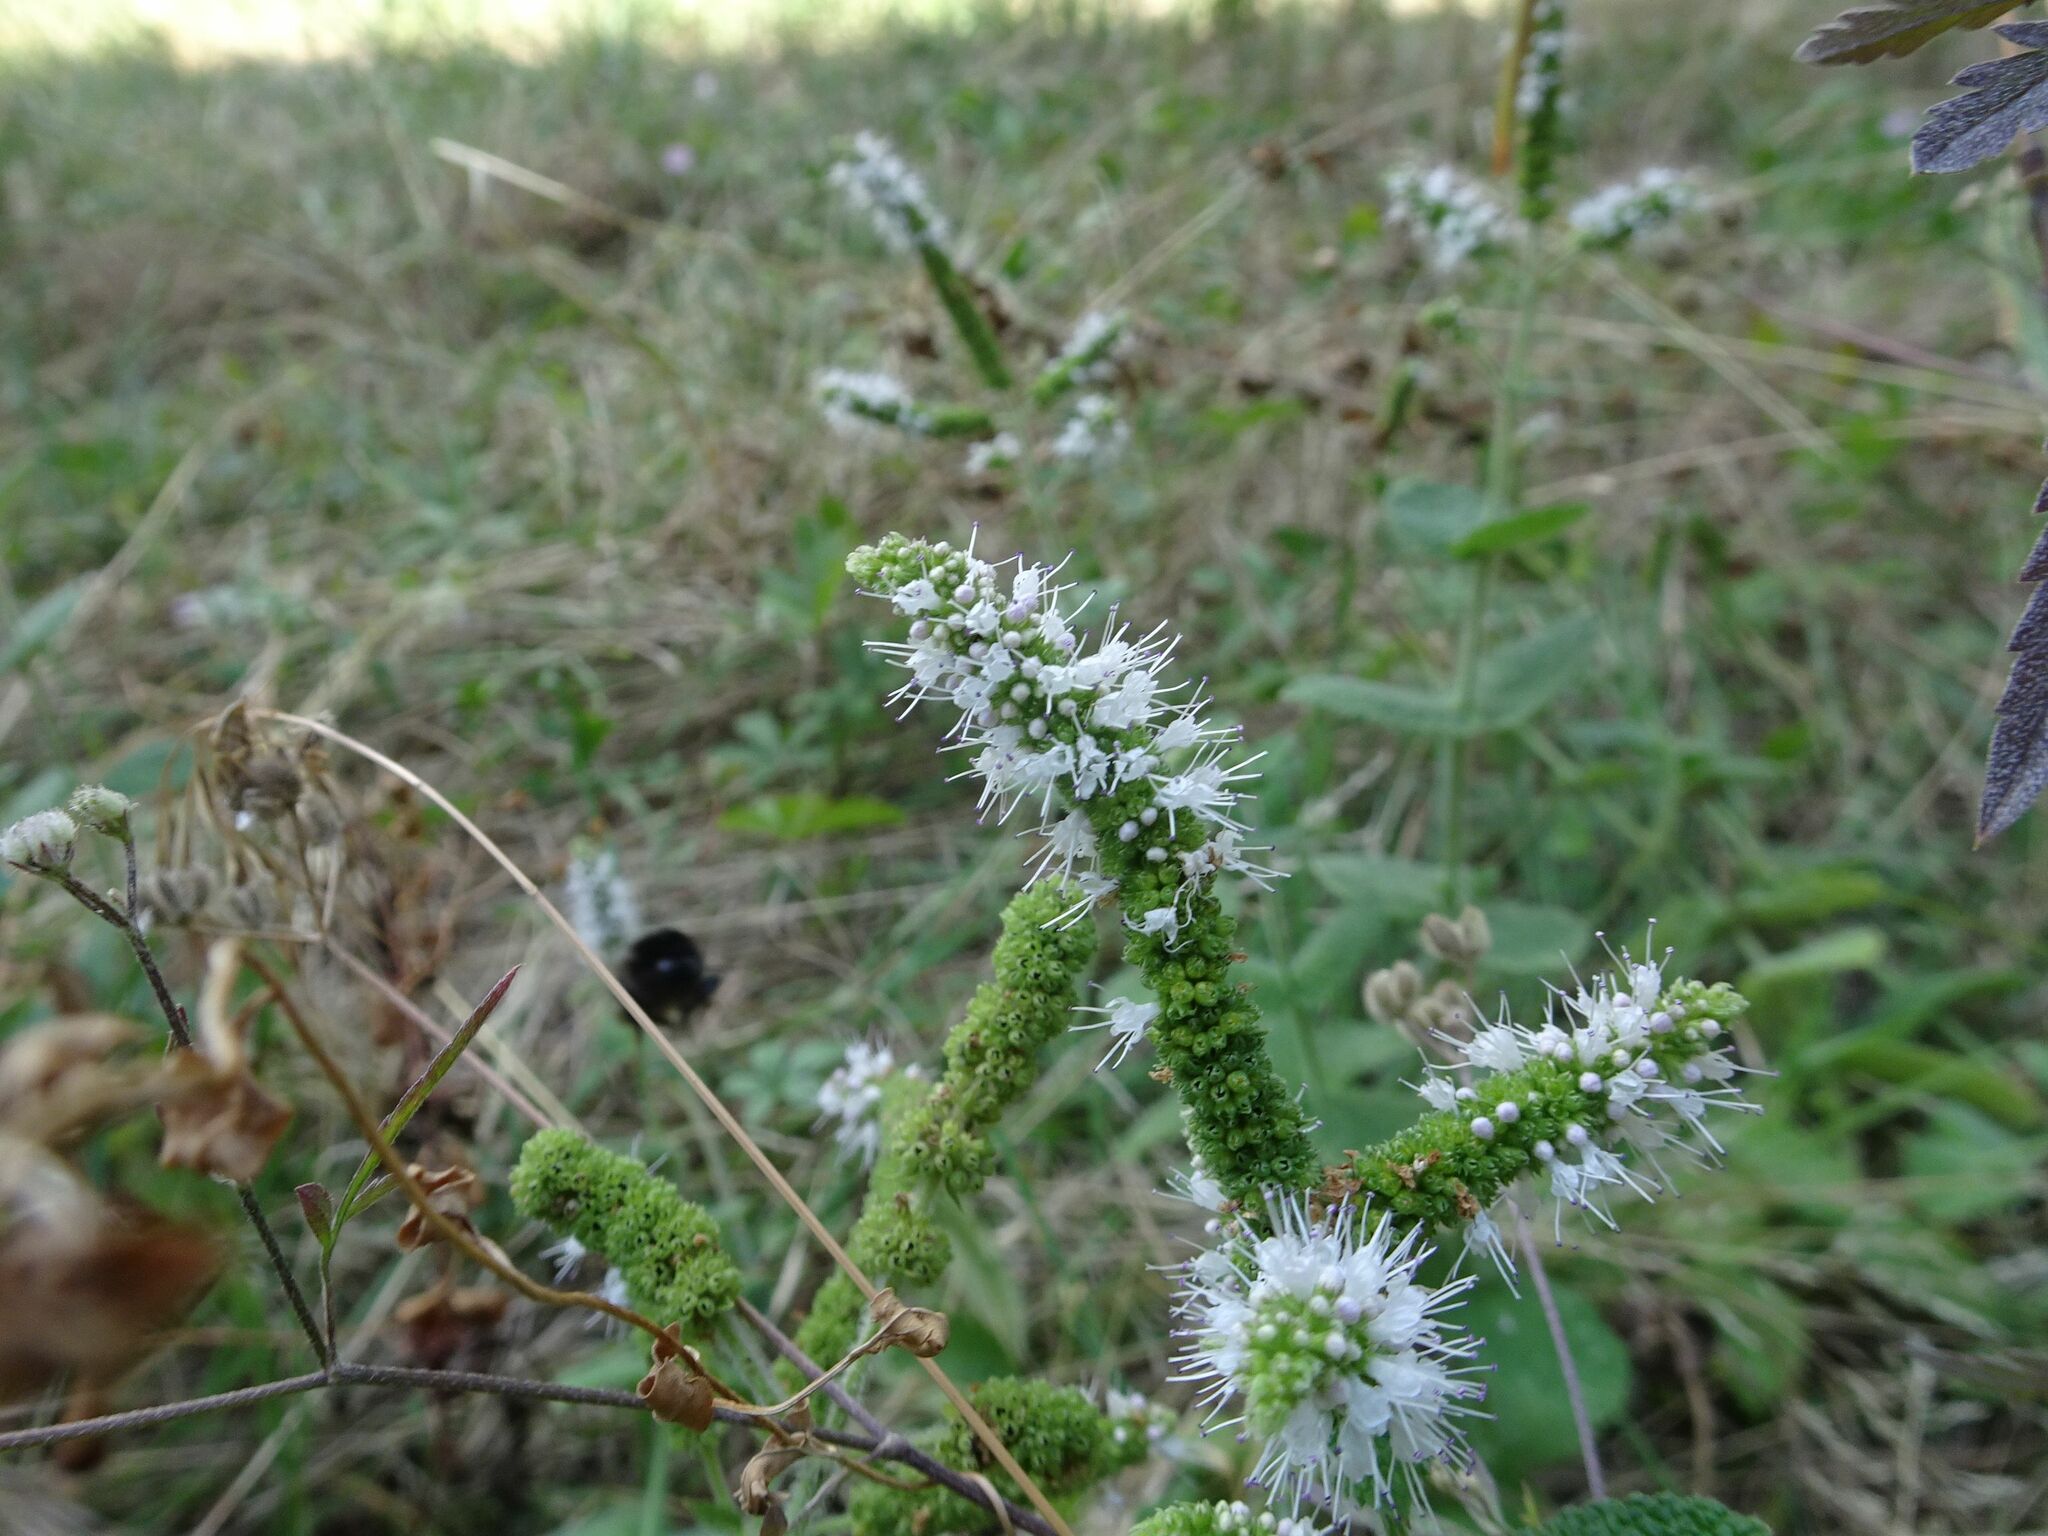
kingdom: Plantae
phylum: Tracheophyta
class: Magnoliopsida
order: Lamiales
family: Lamiaceae
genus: Mentha
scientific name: Mentha suaveolens
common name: Apple mint
